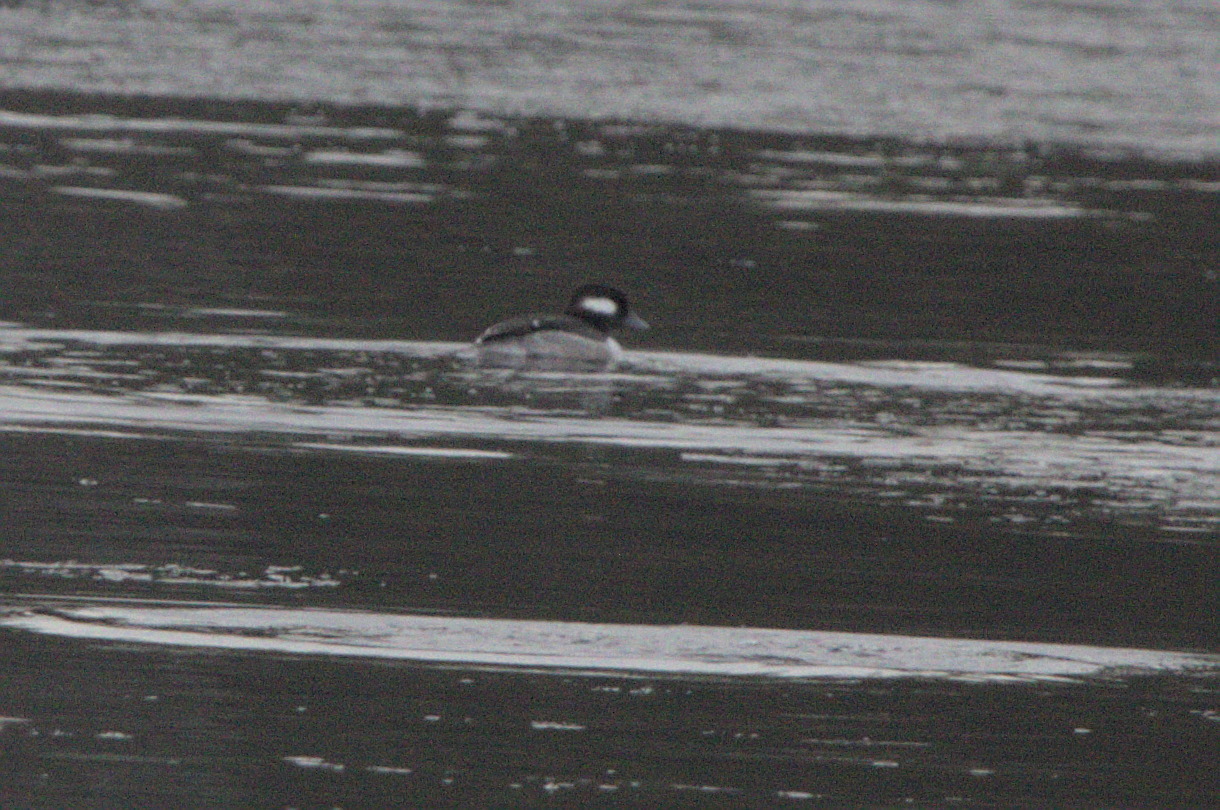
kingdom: Animalia
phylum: Chordata
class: Aves
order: Anseriformes
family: Anatidae
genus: Bucephala
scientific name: Bucephala albeola
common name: Bufflehead
